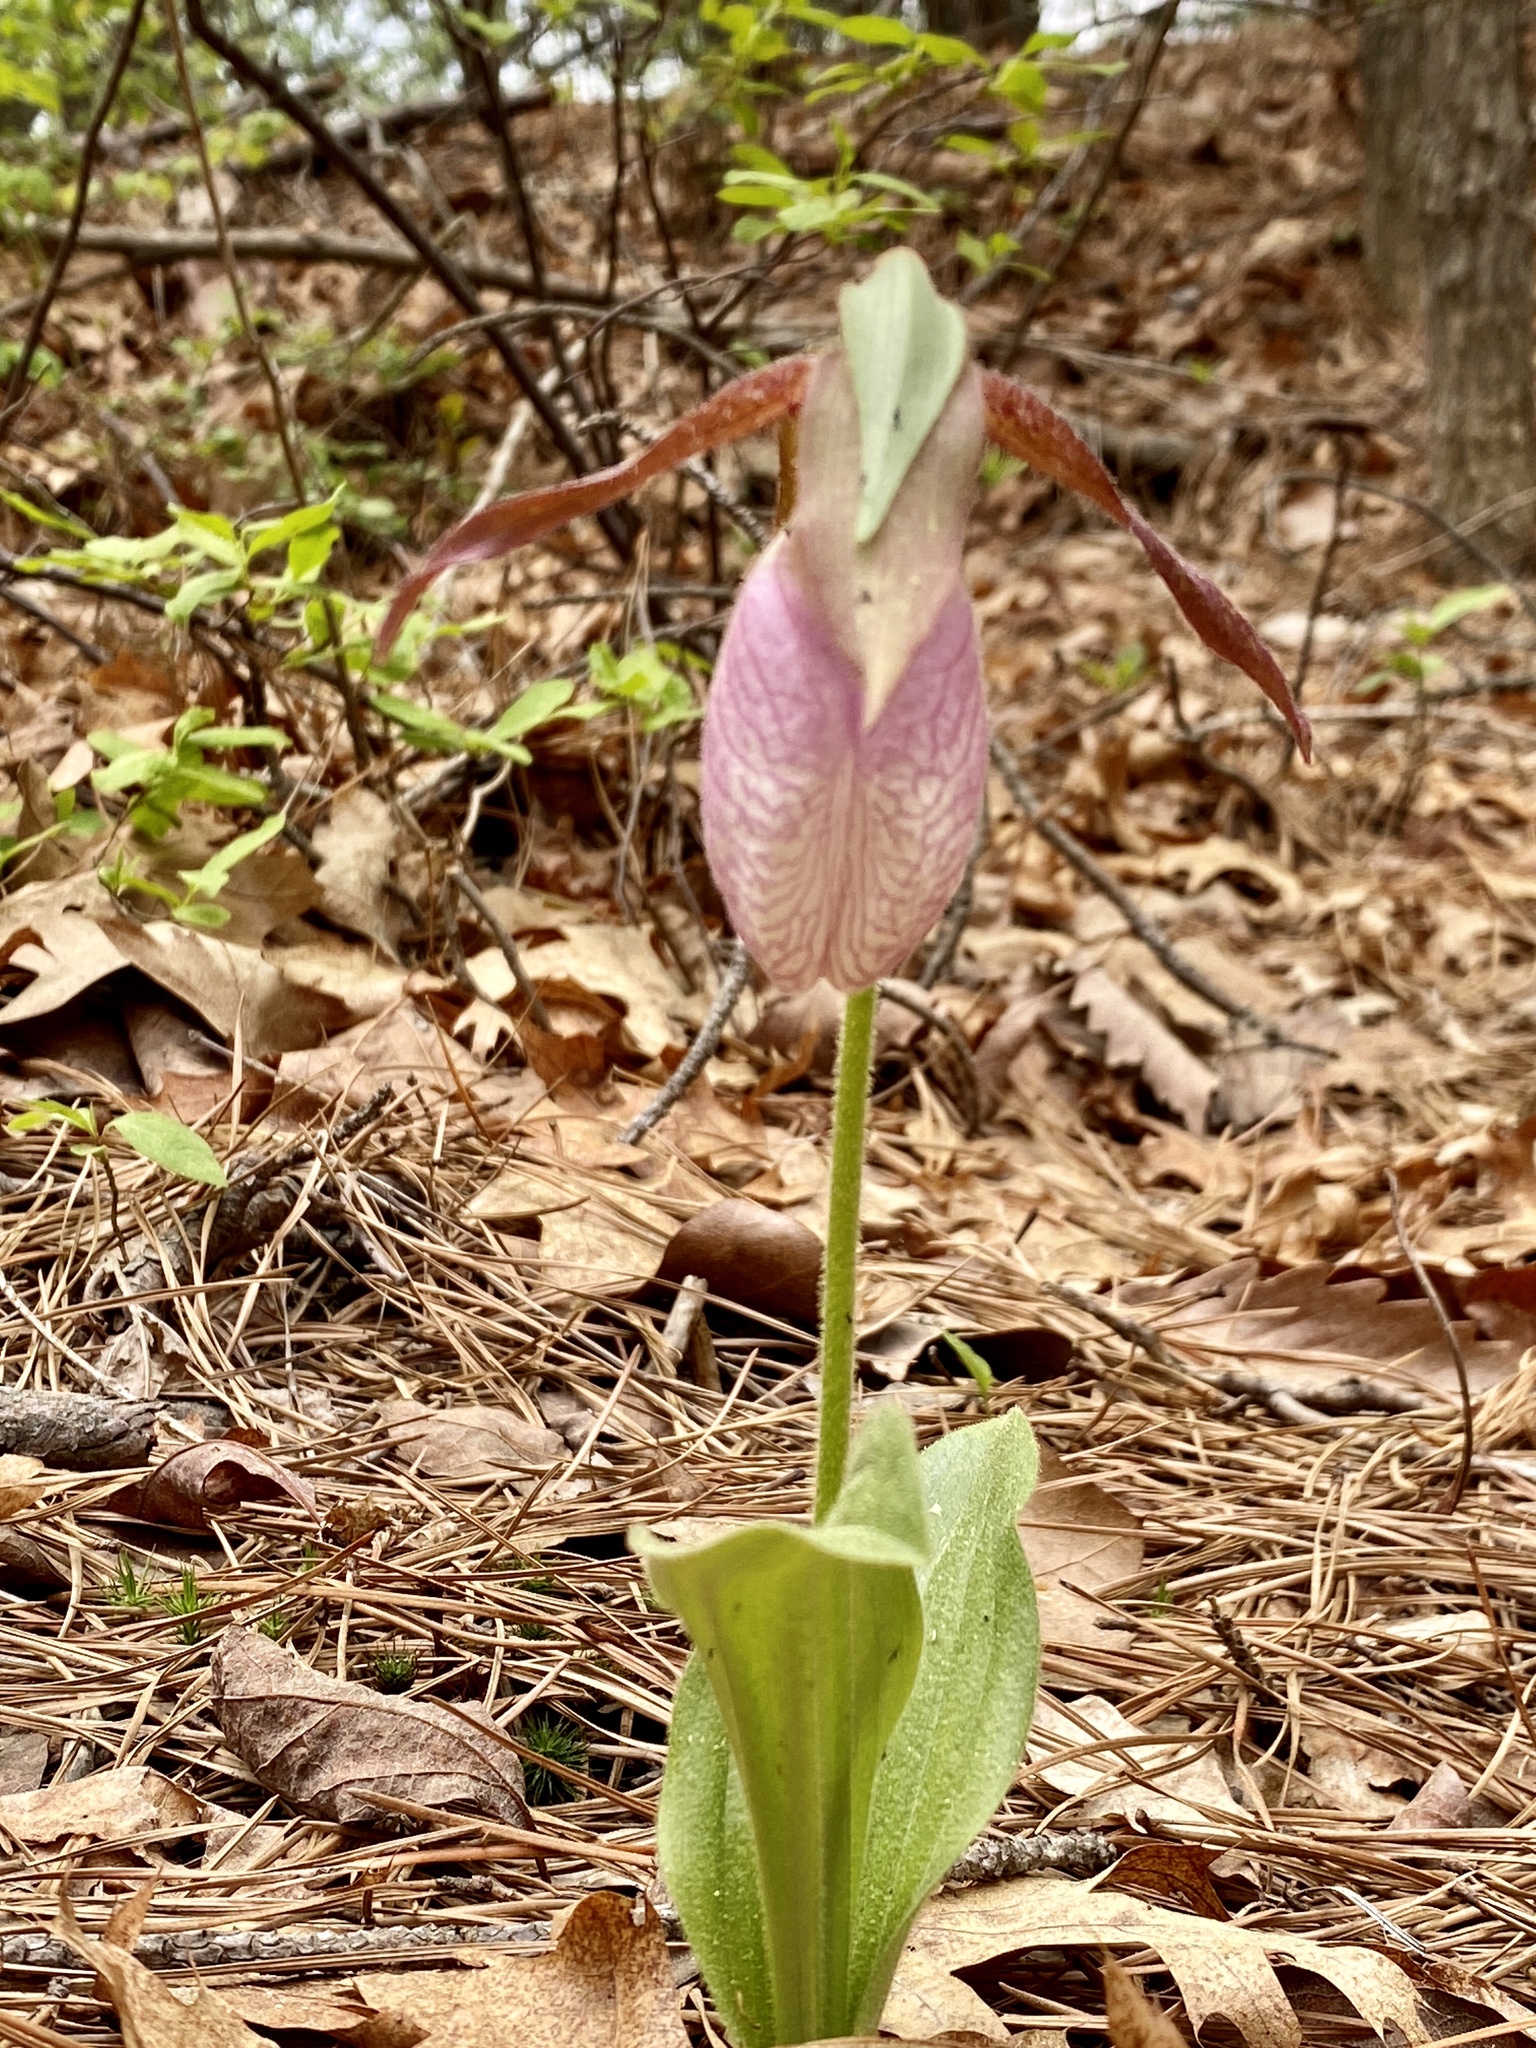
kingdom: Plantae
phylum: Tracheophyta
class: Liliopsida
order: Asparagales
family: Orchidaceae
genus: Cypripedium
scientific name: Cypripedium acaule
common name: Pink lady's-slipper
